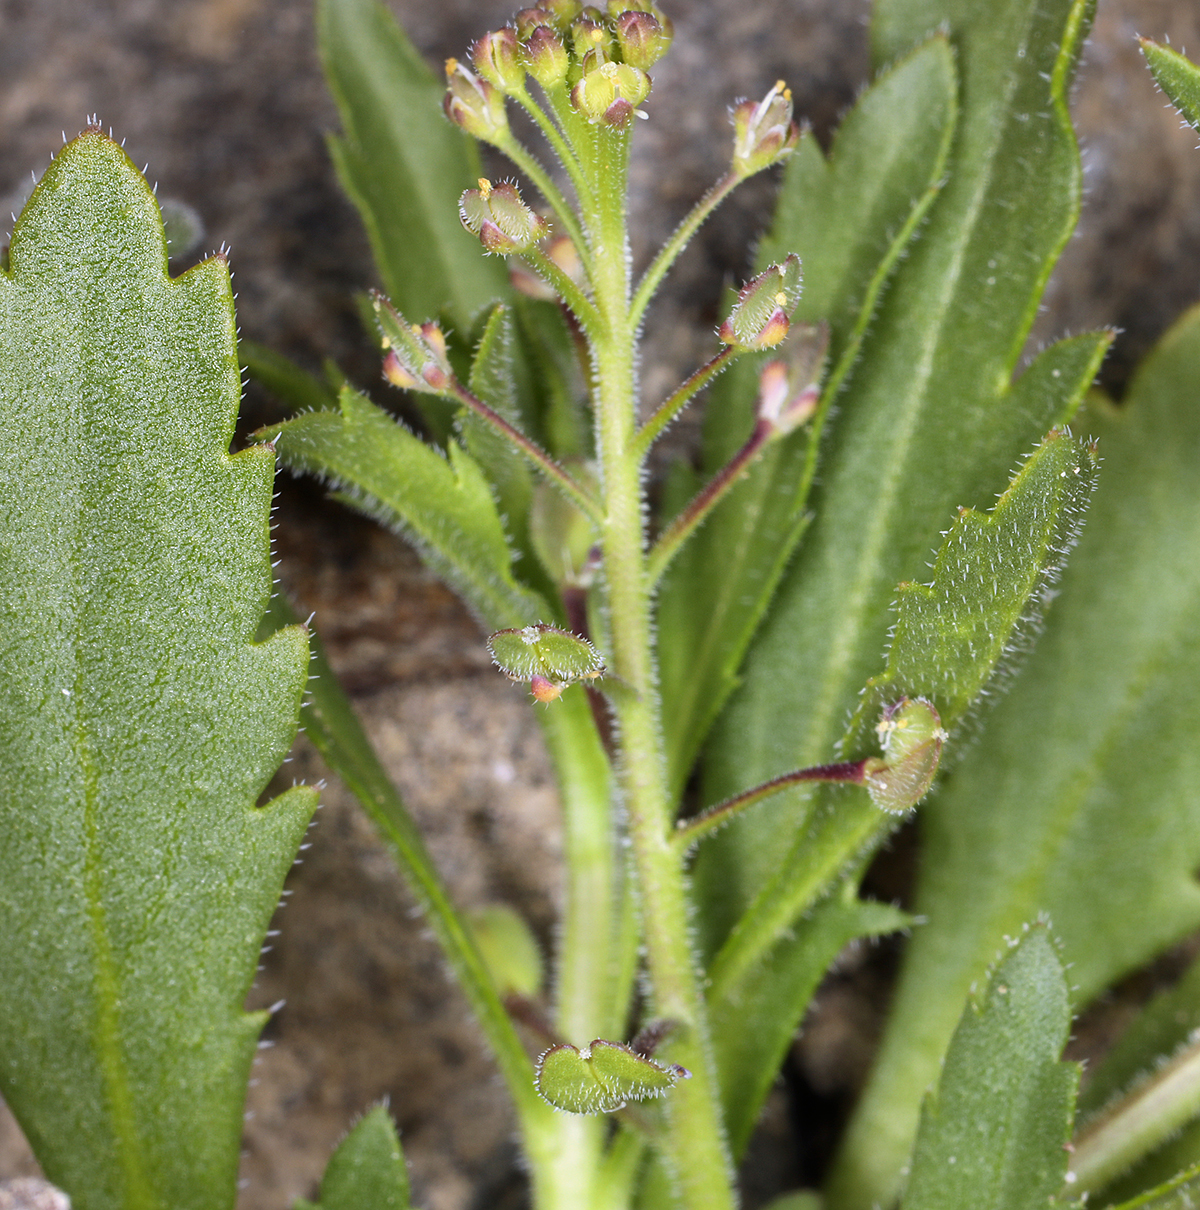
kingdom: Plantae
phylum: Tracheophyta
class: Magnoliopsida
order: Brassicales
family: Brassicaceae
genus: Lepidium
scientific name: Lepidium lasiocarpum
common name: Hairy-pod pepperwort
